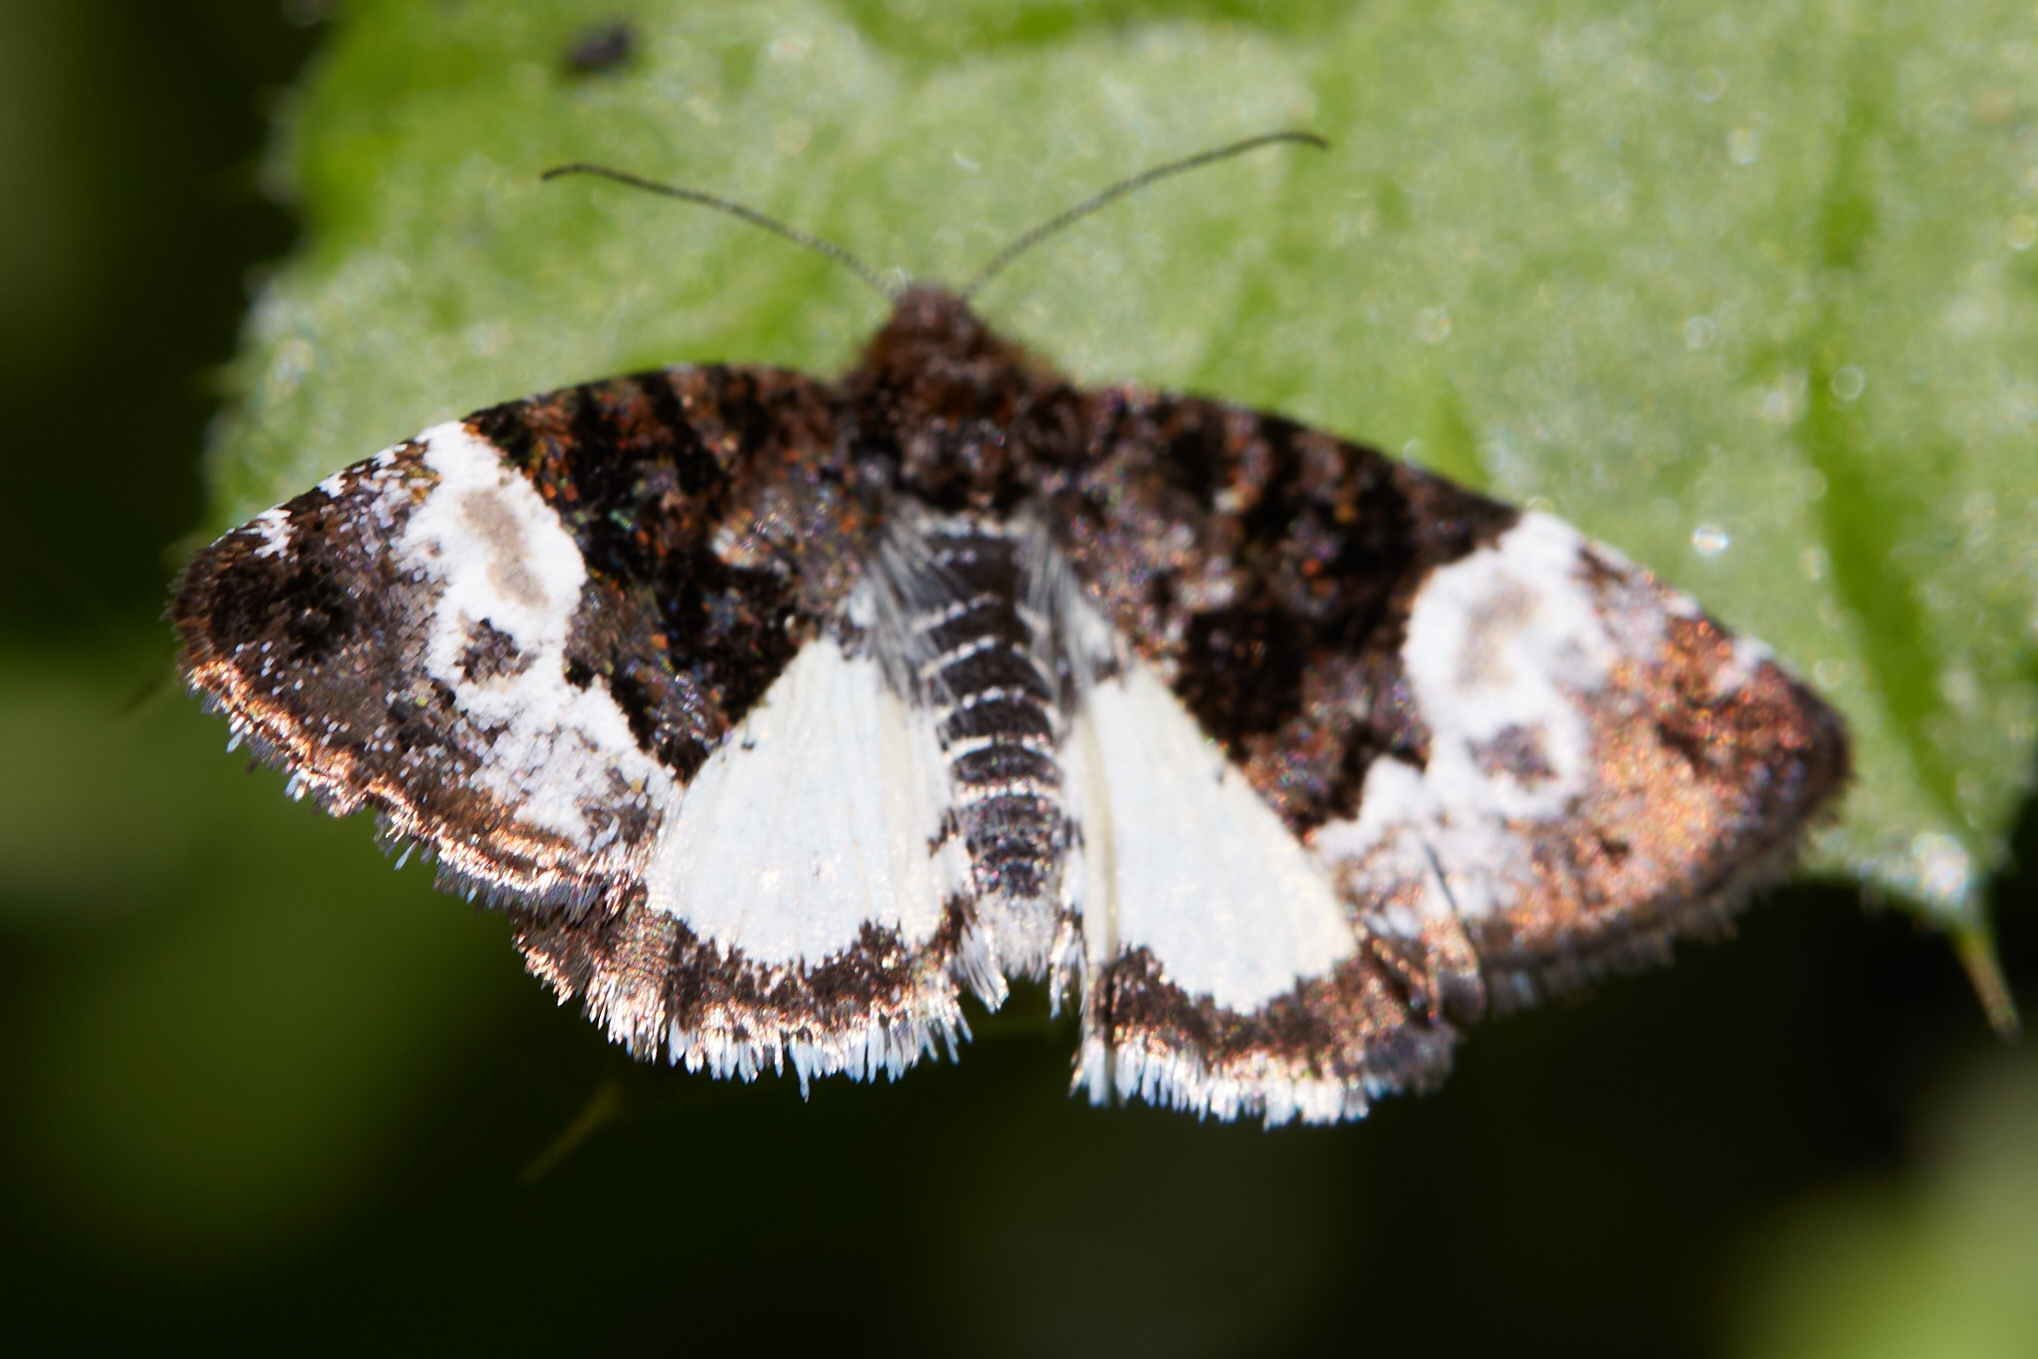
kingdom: Animalia
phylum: Arthropoda
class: Insecta
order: Lepidoptera
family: Noctuidae
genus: Annaphila
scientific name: Annaphila diva
